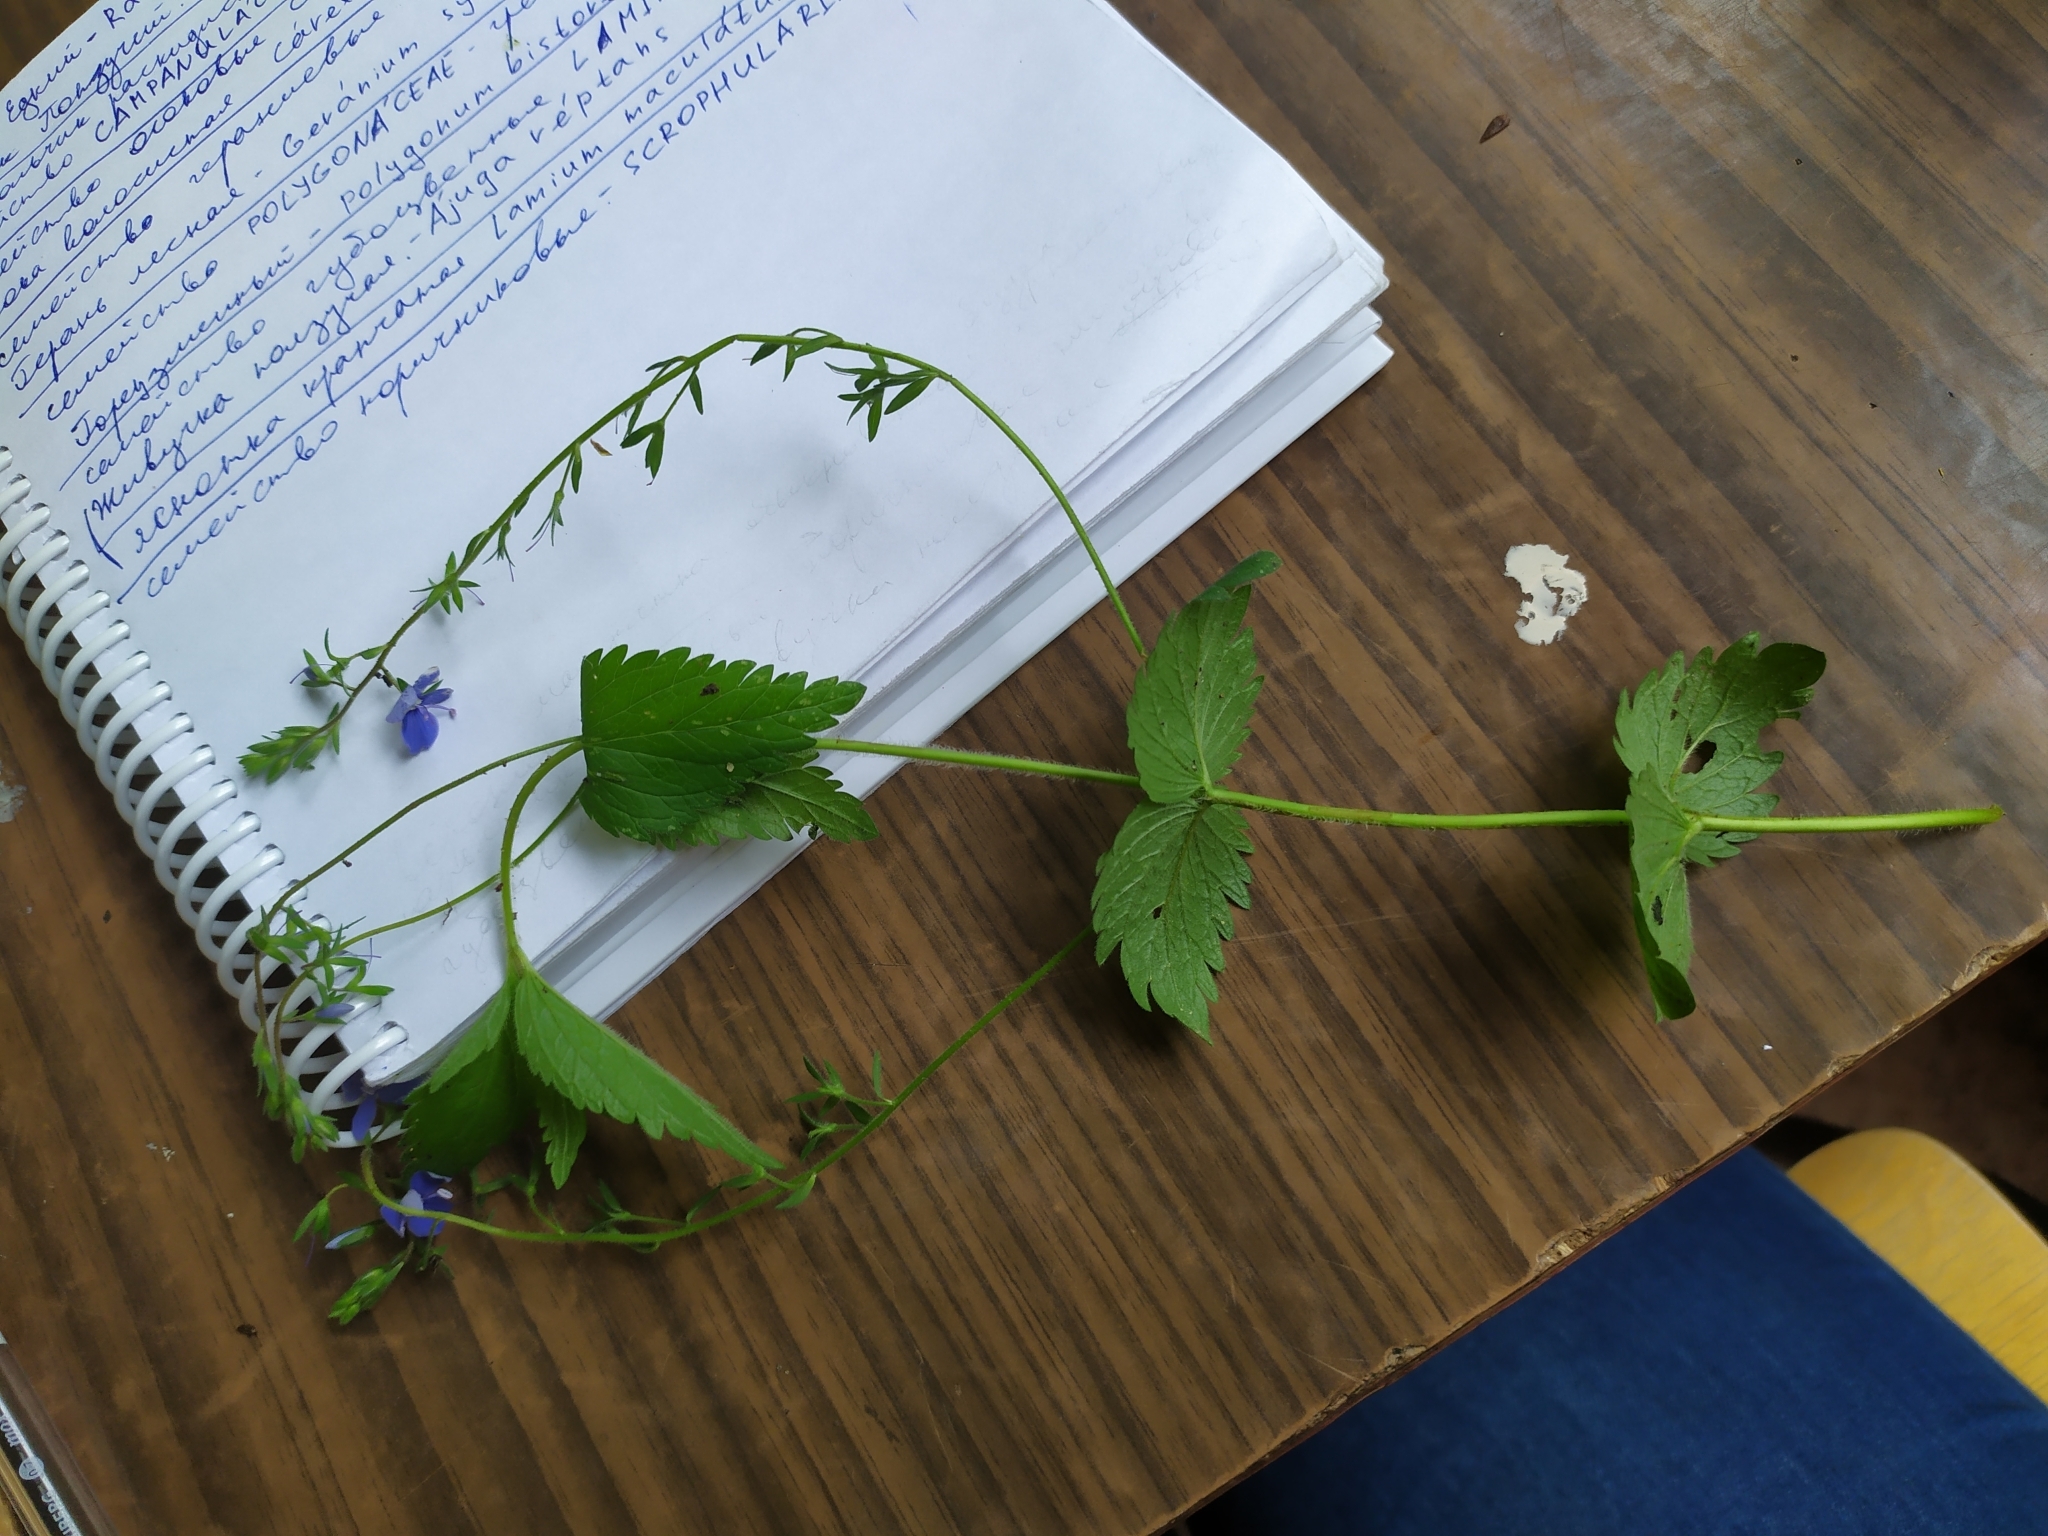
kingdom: Plantae
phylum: Tracheophyta
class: Magnoliopsida
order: Lamiales
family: Plantaginaceae
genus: Veronica
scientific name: Veronica chamaedrys
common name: Germander speedwell
